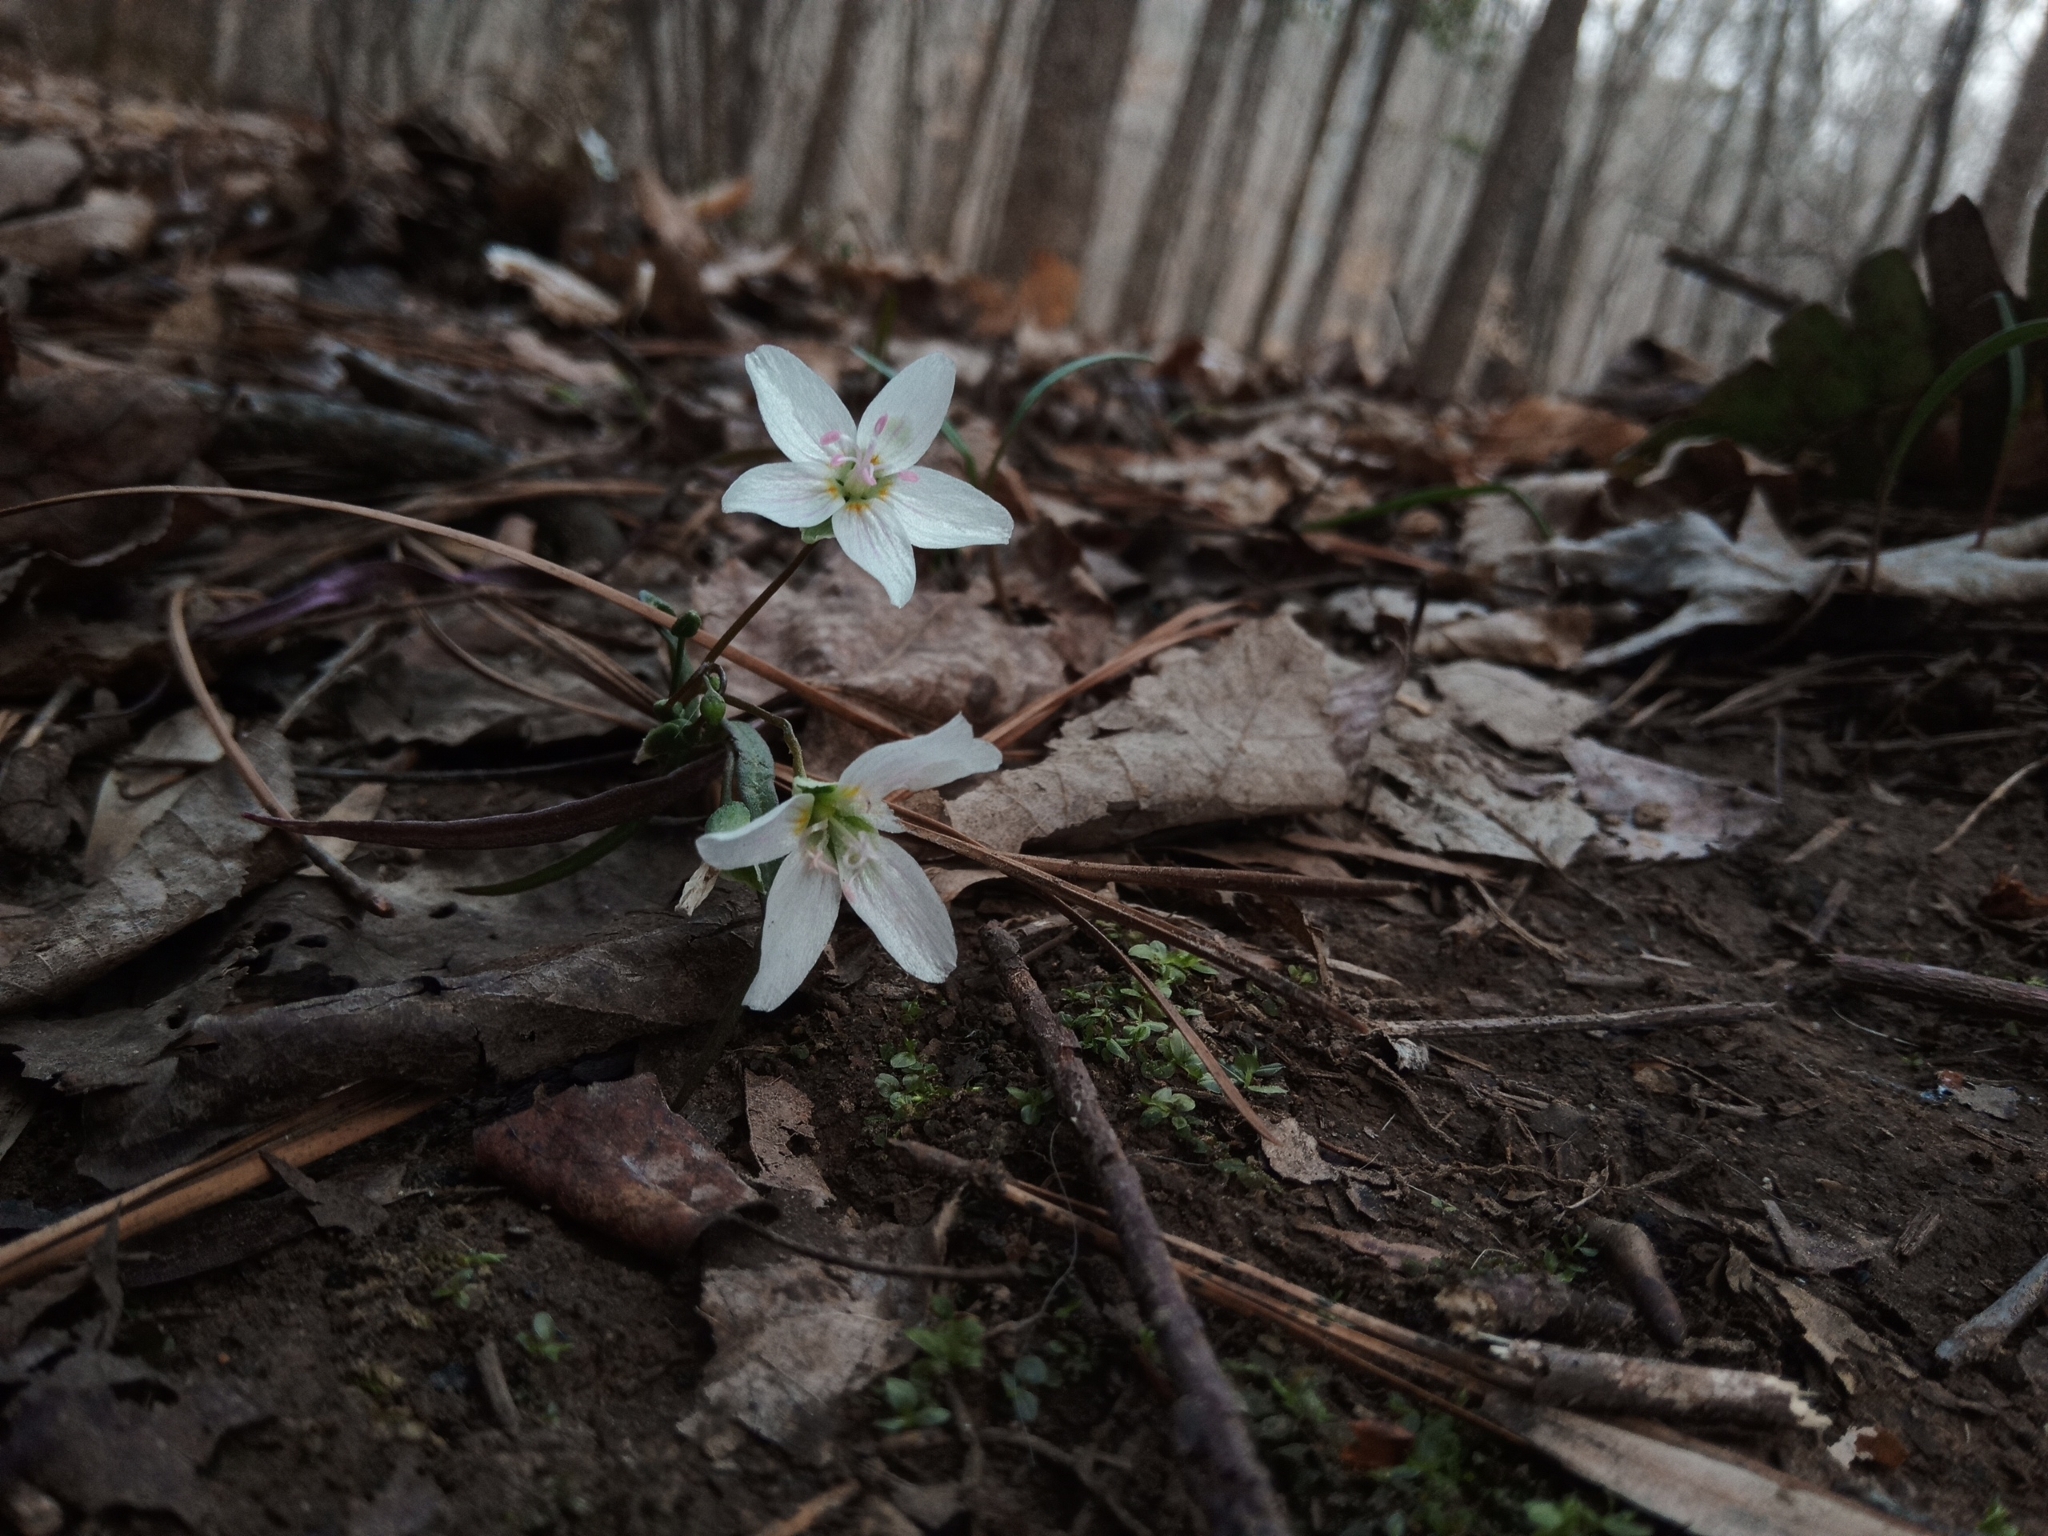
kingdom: Plantae
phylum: Tracheophyta
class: Magnoliopsida
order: Caryophyllales
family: Montiaceae
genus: Claytonia
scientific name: Claytonia virginica
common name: Virginia springbeauty
